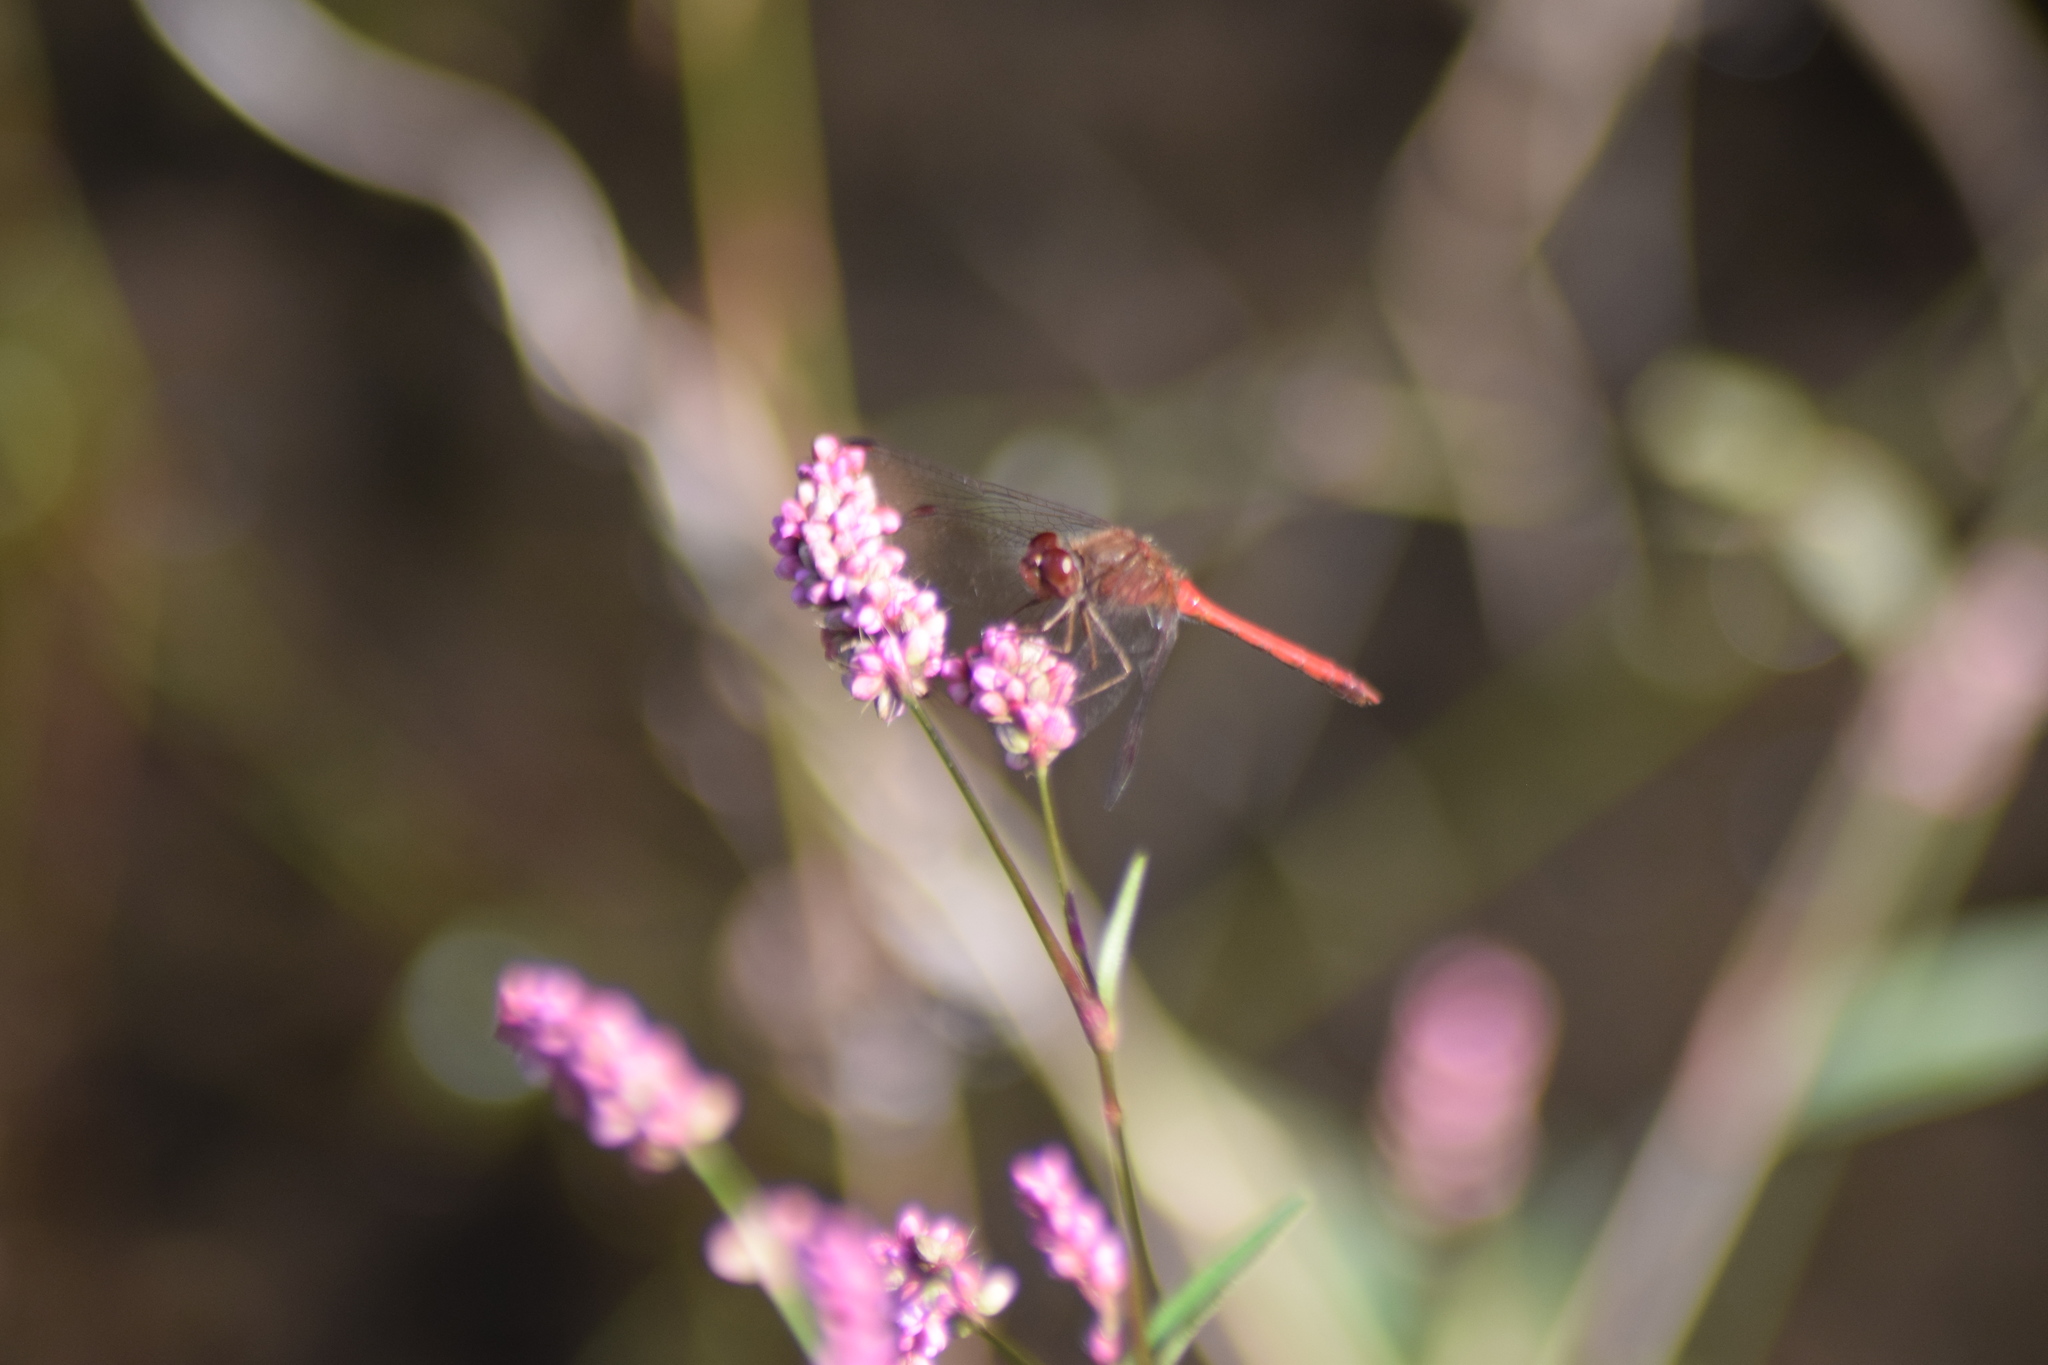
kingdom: Animalia
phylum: Arthropoda
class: Insecta
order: Odonata
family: Libellulidae
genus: Sympetrum
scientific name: Sympetrum vicinum
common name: Autumn meadowhawk
